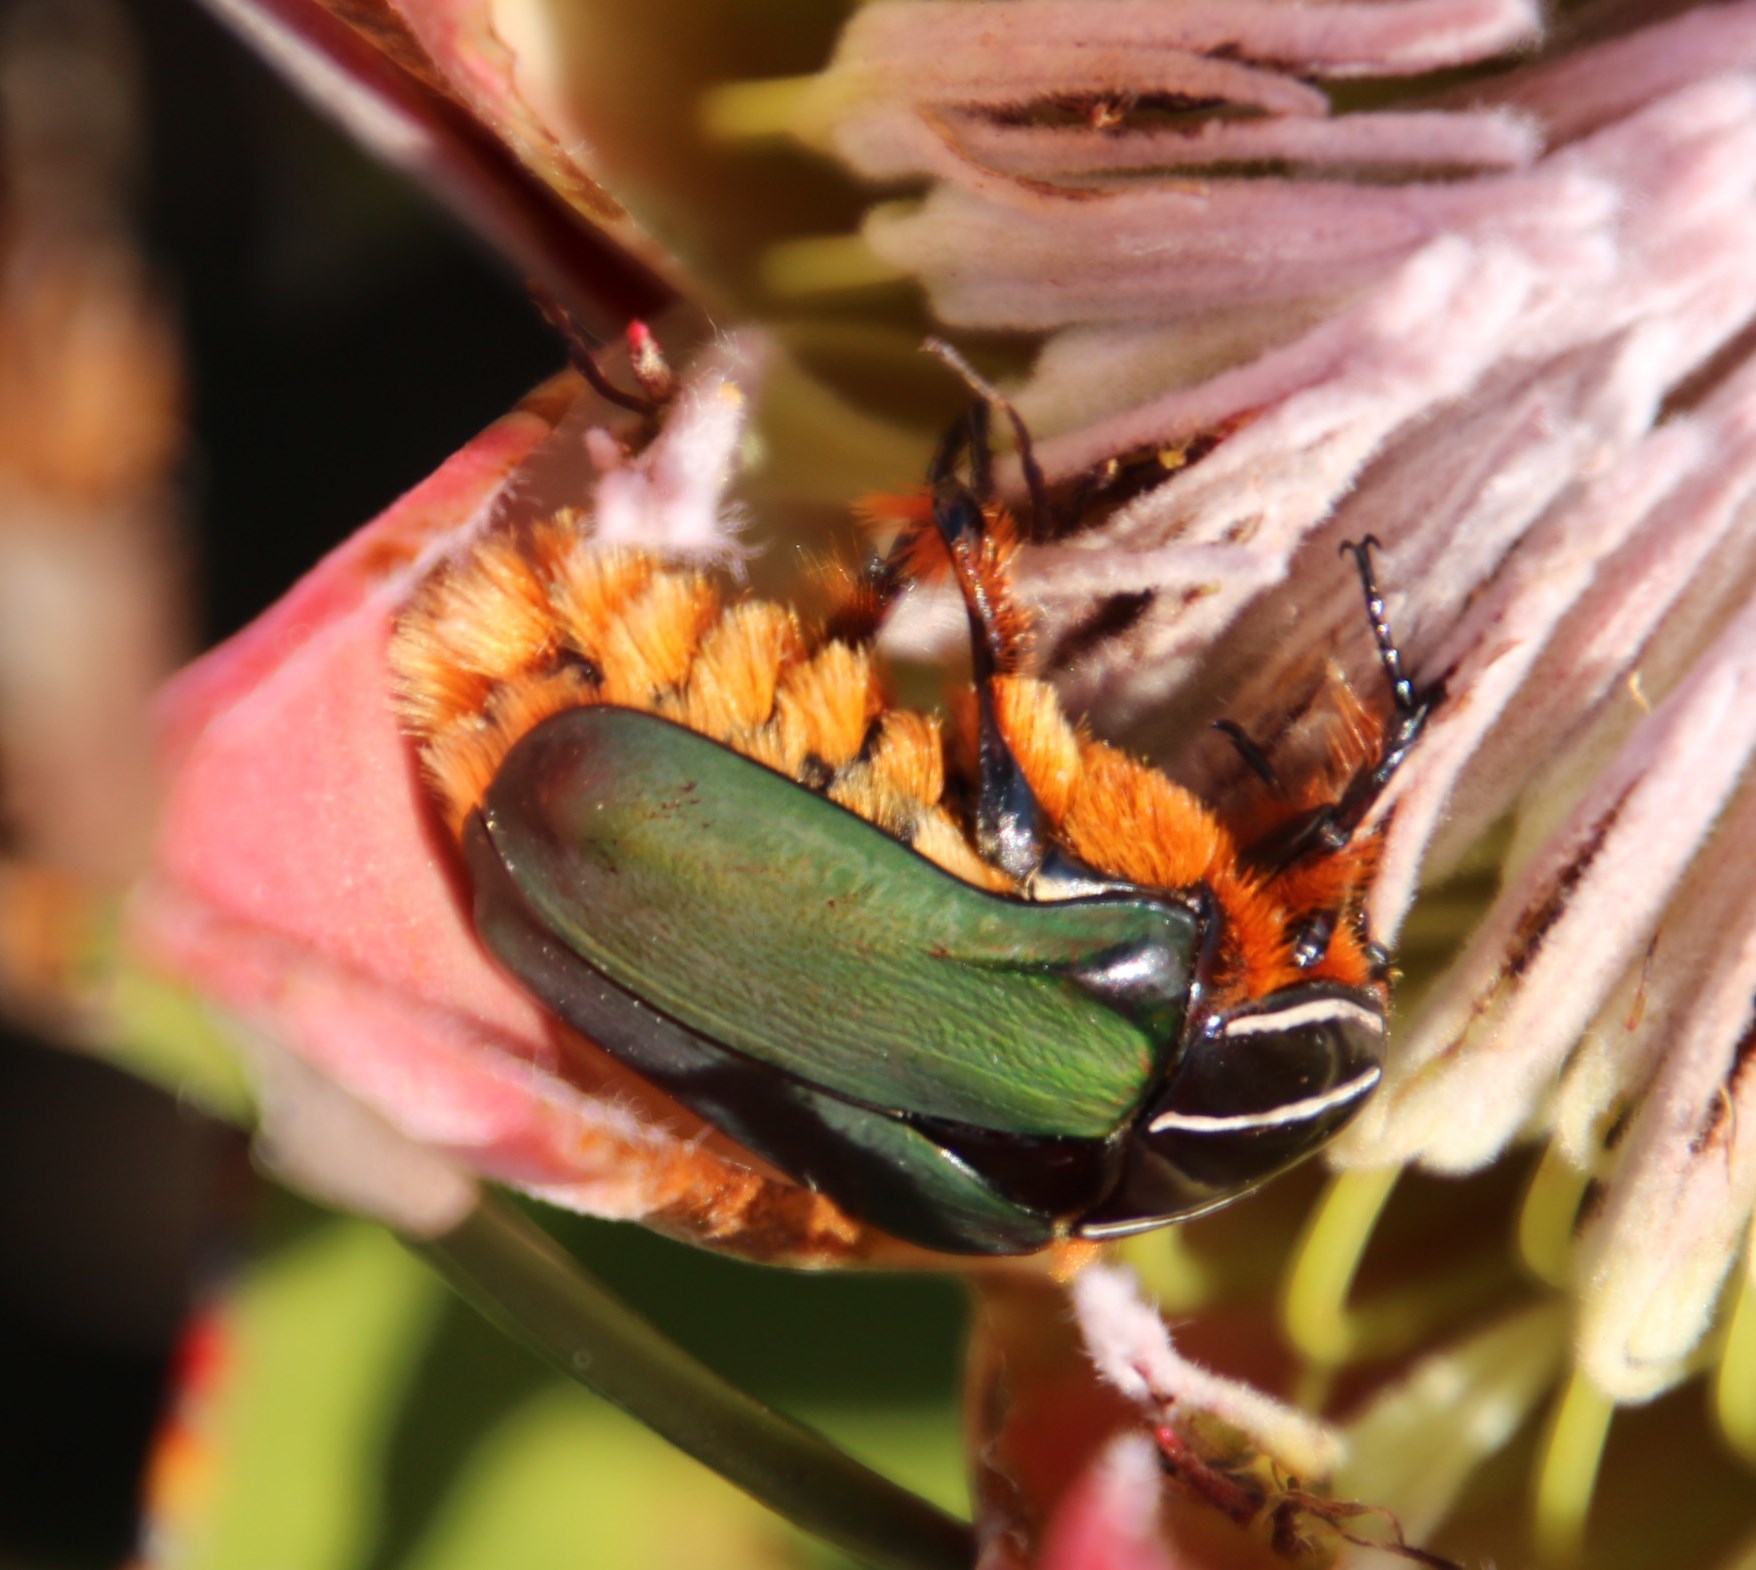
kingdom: Animalia
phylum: Arthropoda
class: Insecta
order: Coleoptera
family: Scarabaeidae
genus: Trichostetha
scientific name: Trichostetha fascicularis
